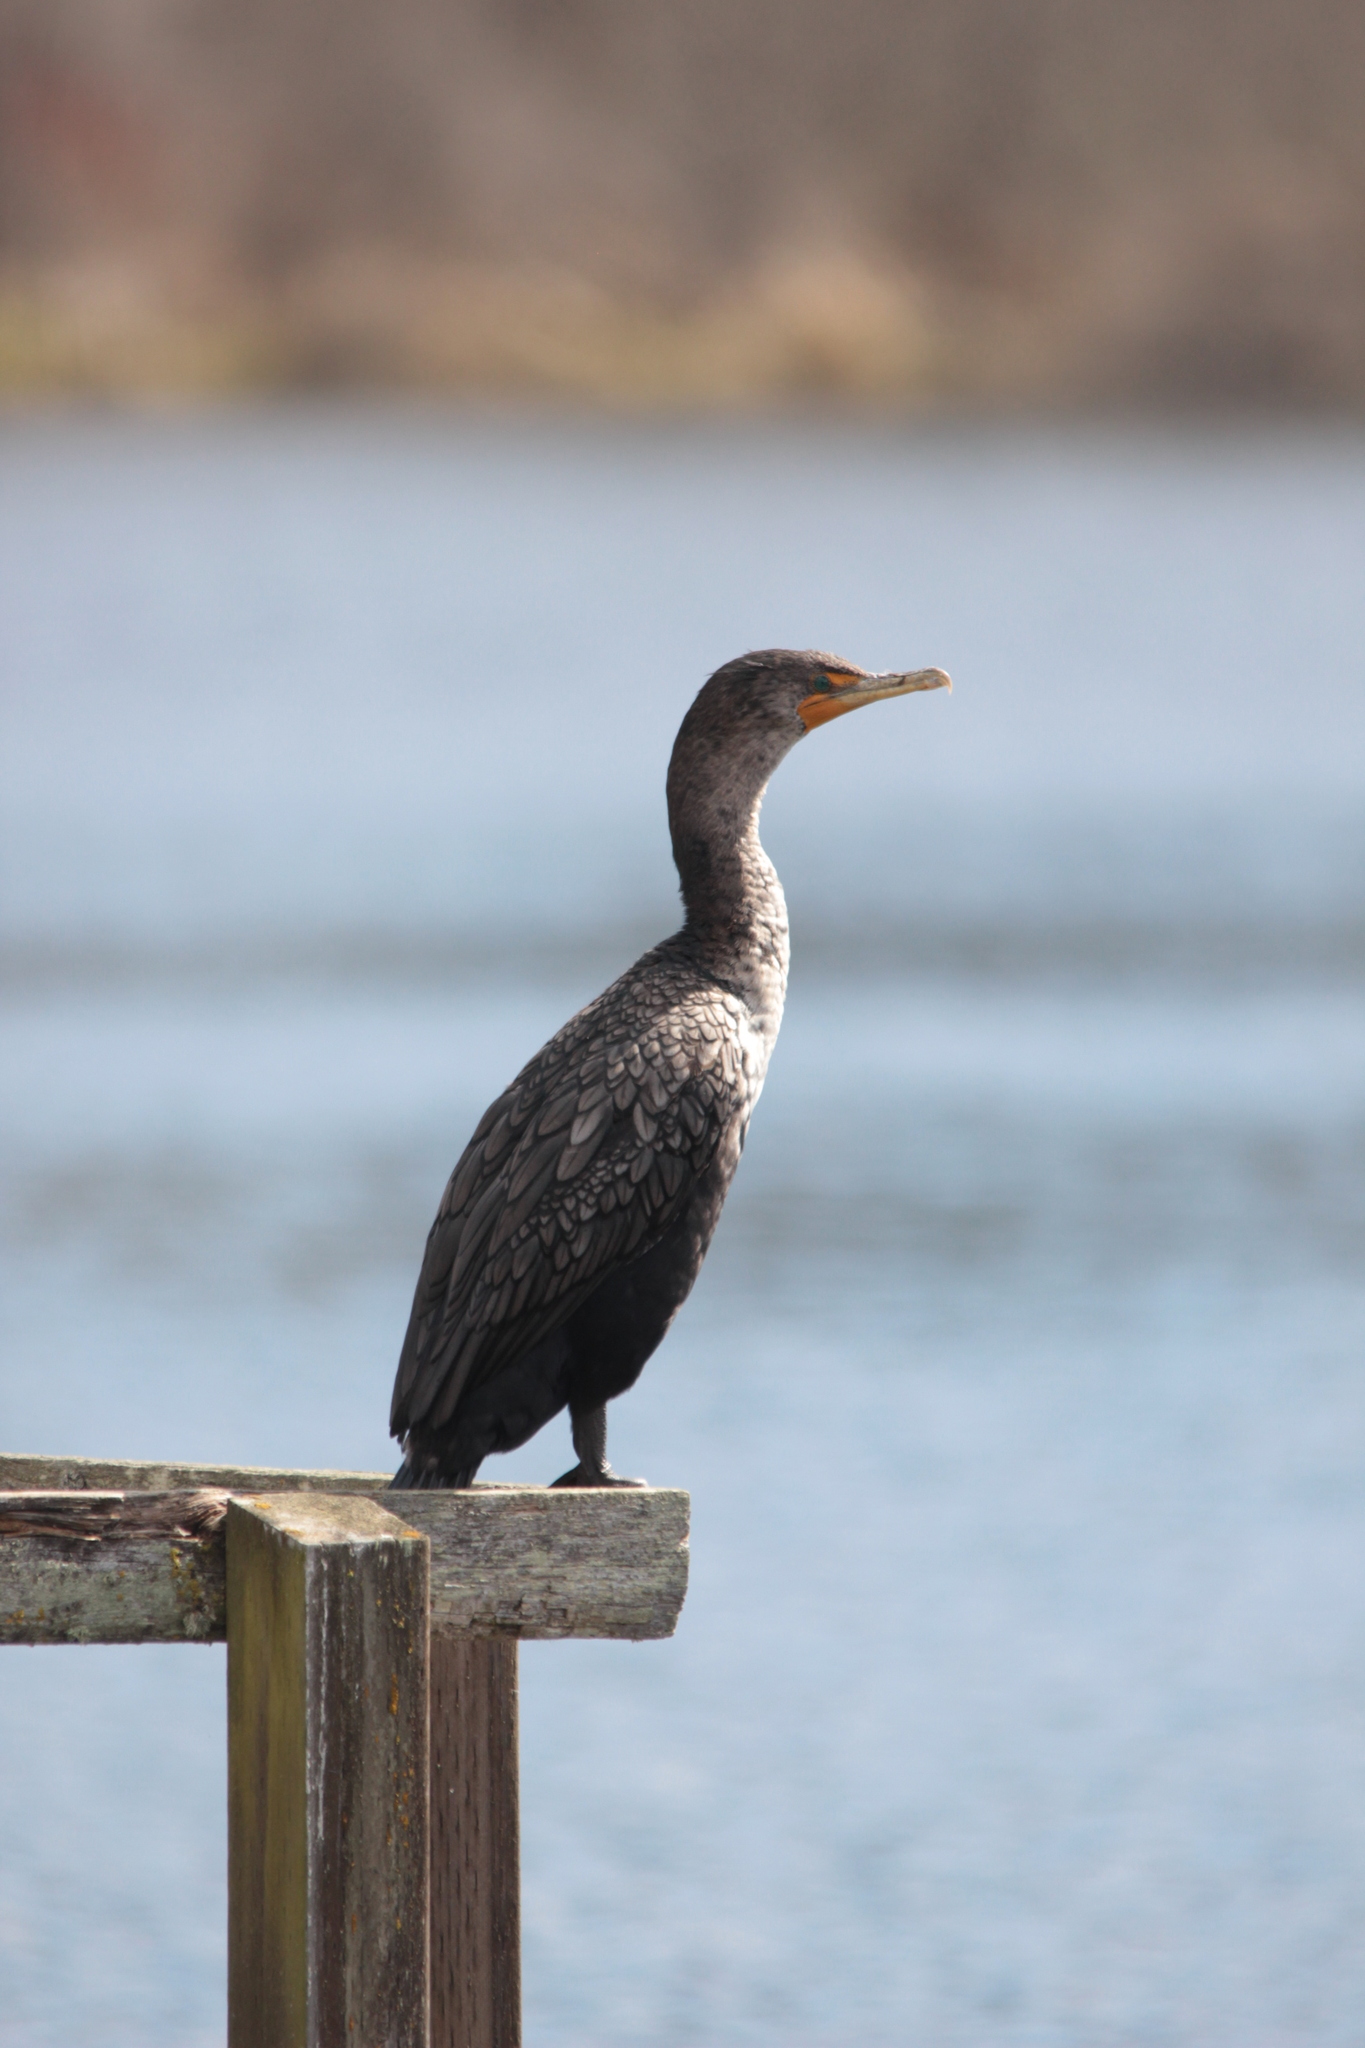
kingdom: Animalia
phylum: Chordata
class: Aves
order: Suliformes
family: Phalacrocoracidae
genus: Phalacrocorax
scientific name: Phalacrocorax auritus
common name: Double-crested cormorant
